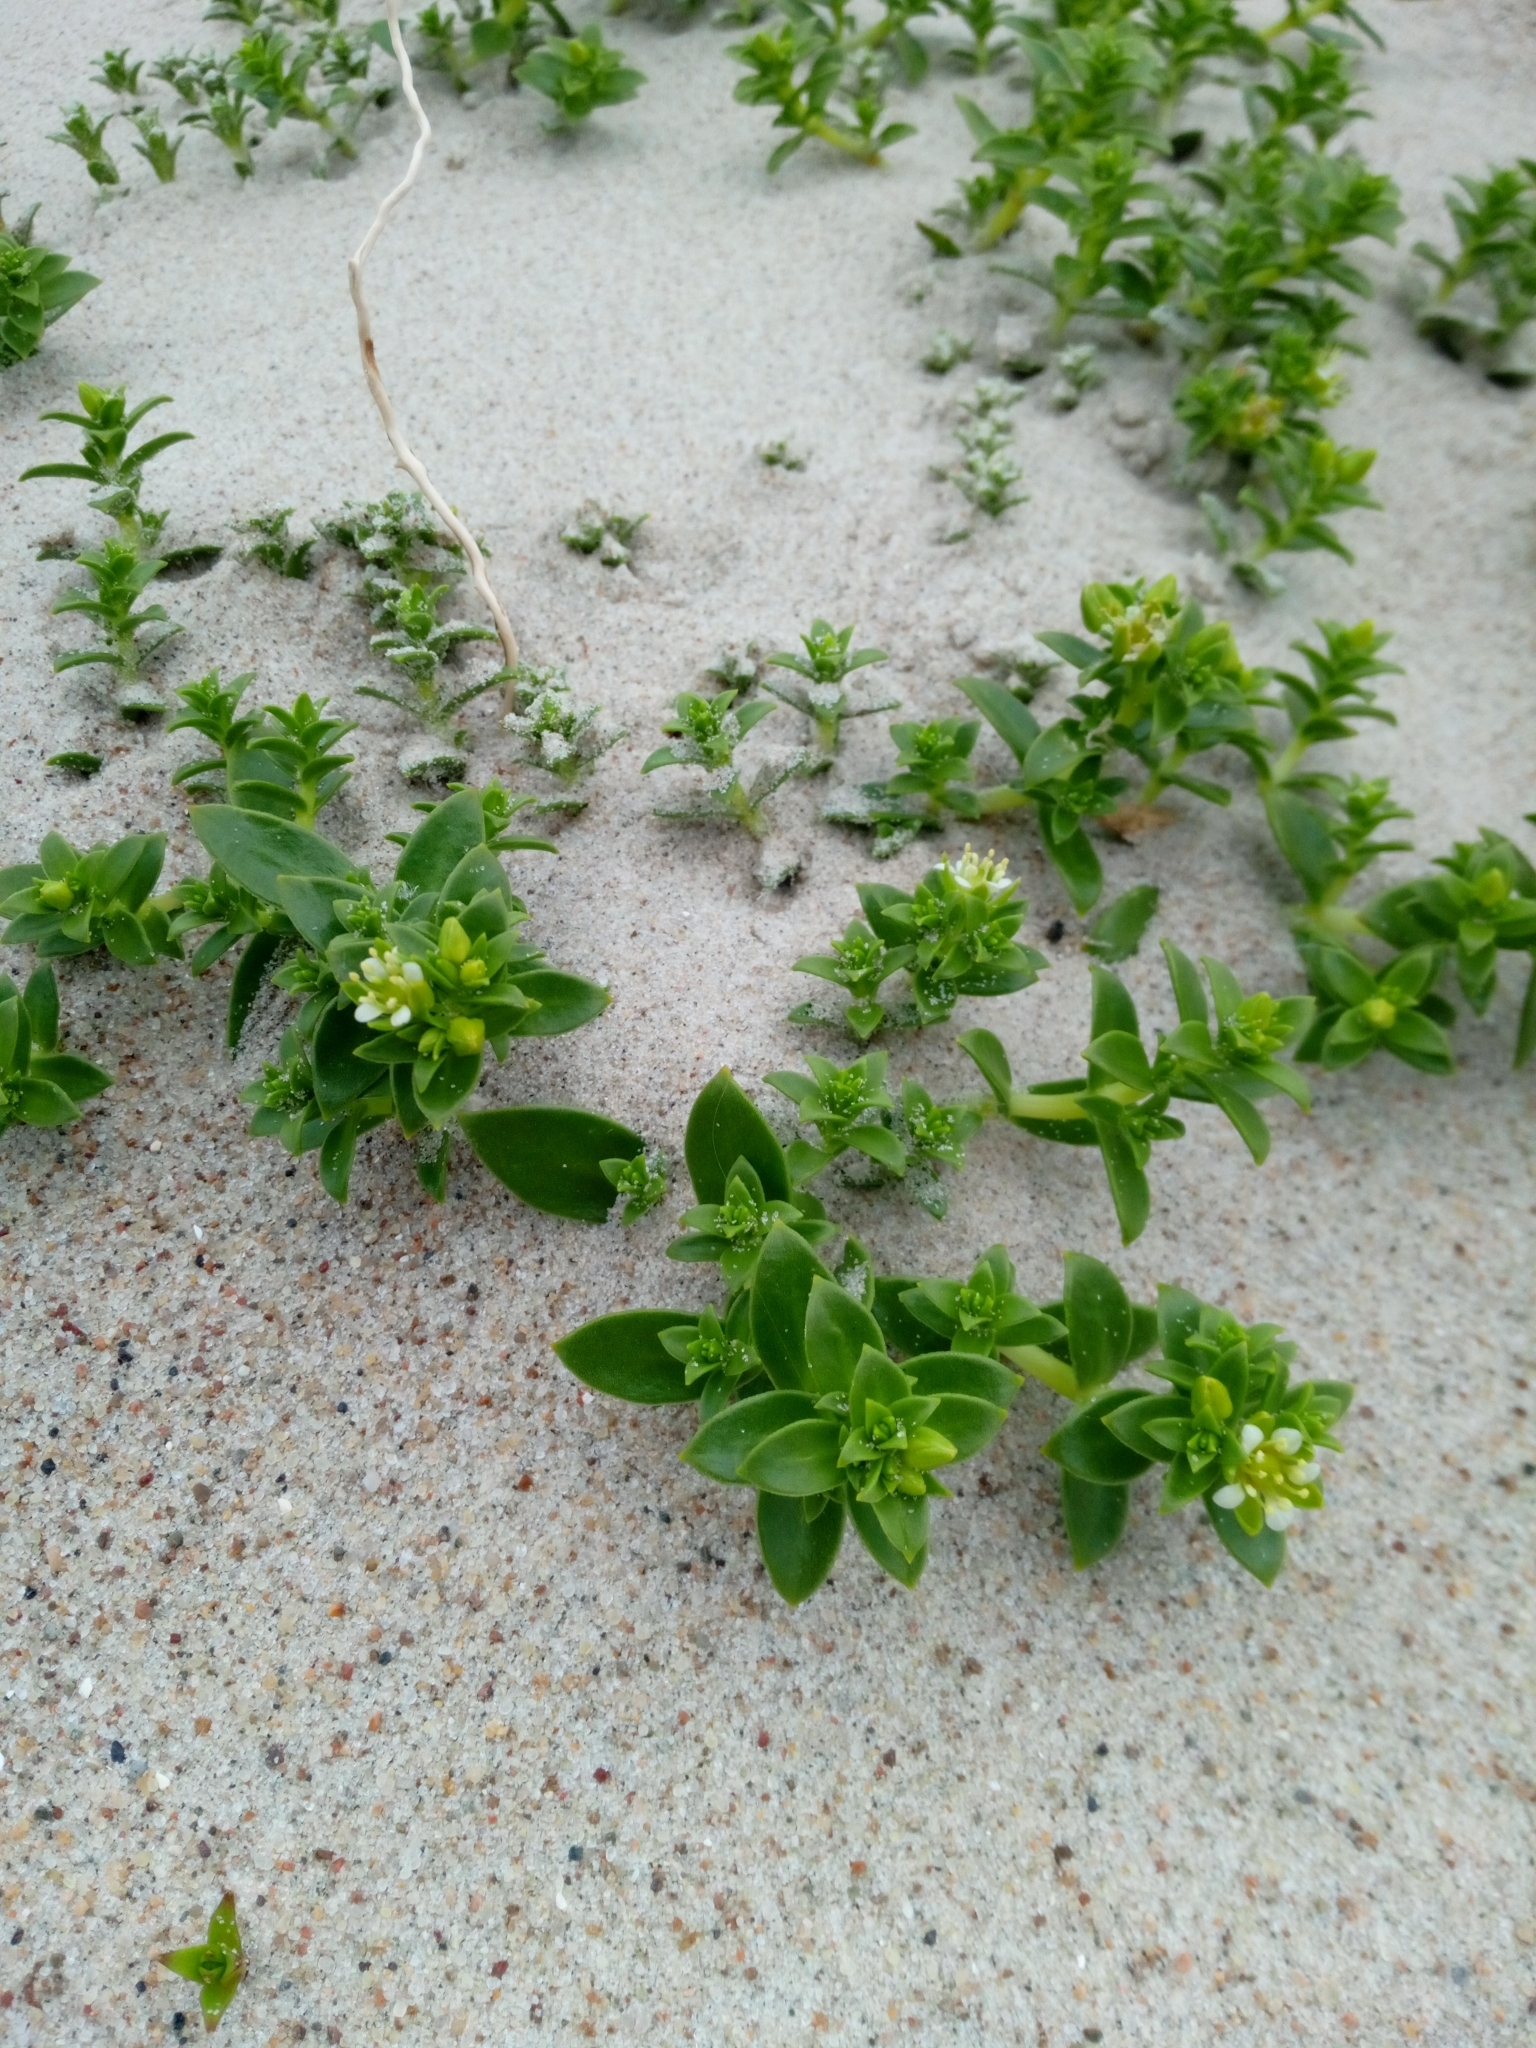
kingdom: Plantae
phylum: Tracheophyta
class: Magnoliopsida
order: Caryophyllales
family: Caryophyllaceae
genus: Honckenya
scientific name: Honckenya peploides
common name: Sea sandwort
